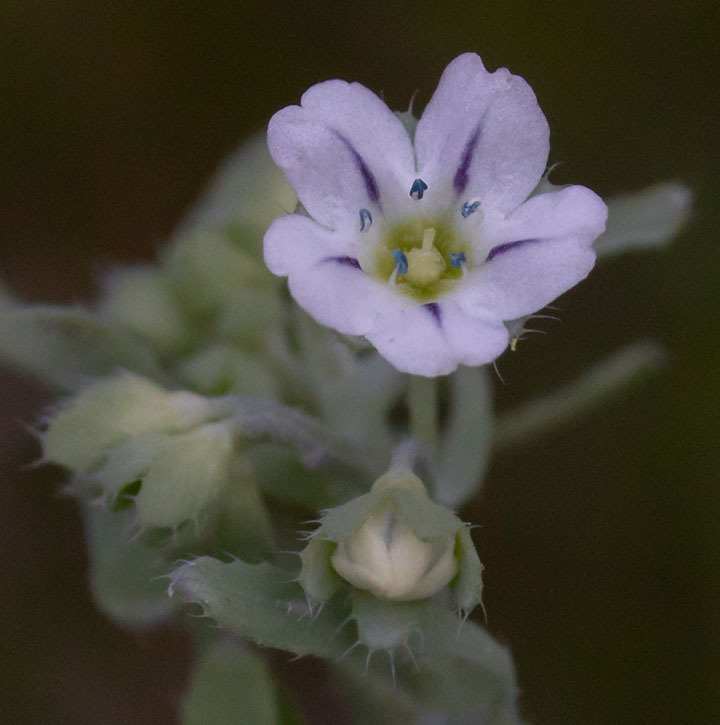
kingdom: Plantae
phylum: Tracheophyta
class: Magnoliopsida
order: Boraginales
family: Hydrophyllaceae
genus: Pholistoma
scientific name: Pholistoma membranaceum
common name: White fiesta-flower
